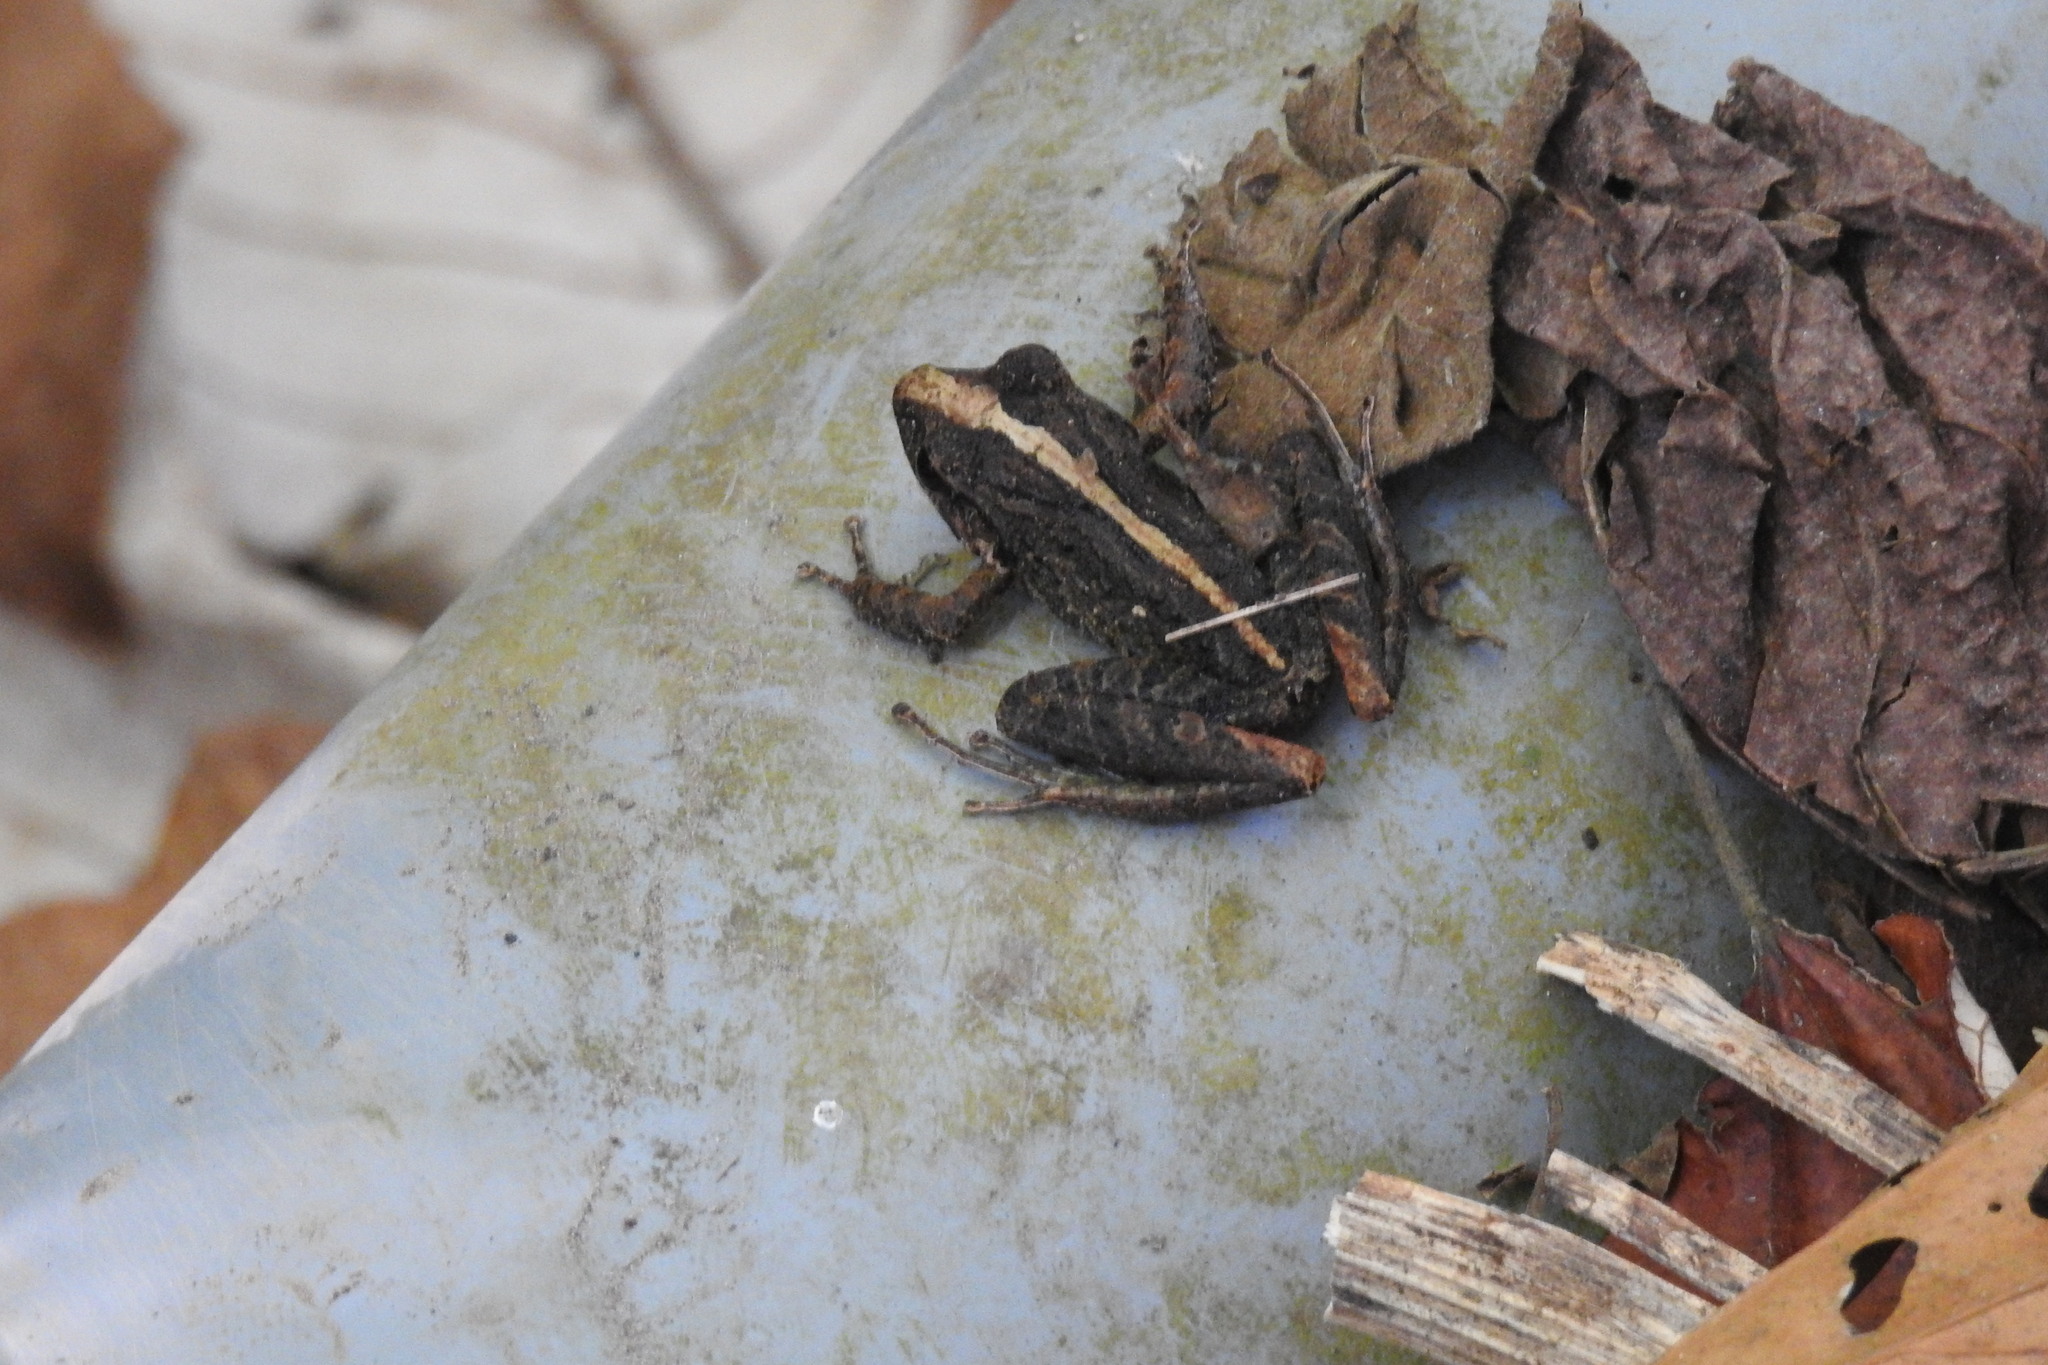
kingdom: Animalia
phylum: Chordata
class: Amphibia
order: Anura
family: Craugastoridae
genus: Craugastor
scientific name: Craugastor fitzingeri
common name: Fitzinger's robber frog
